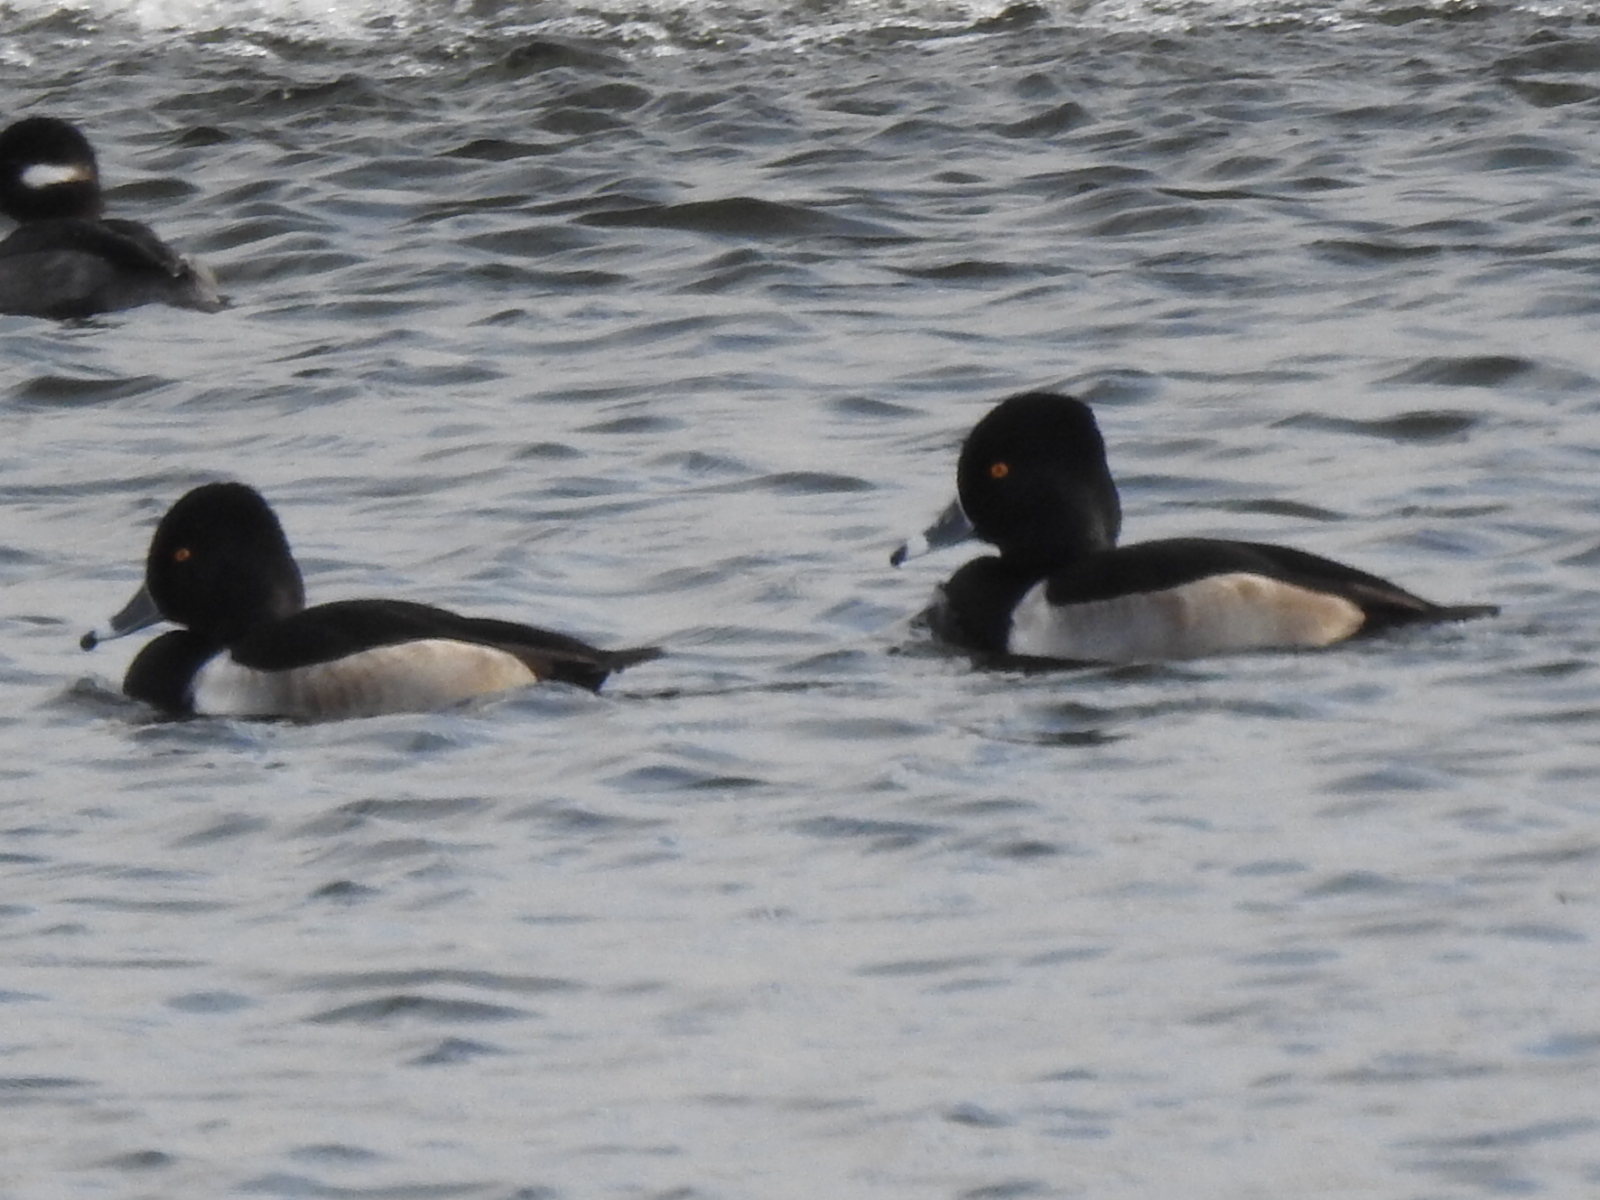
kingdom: Animalia
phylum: Chordata
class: Aves
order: Anseriformes
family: Anatidae
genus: Aythya
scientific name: Aythya collaris
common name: Ring-necked duck
